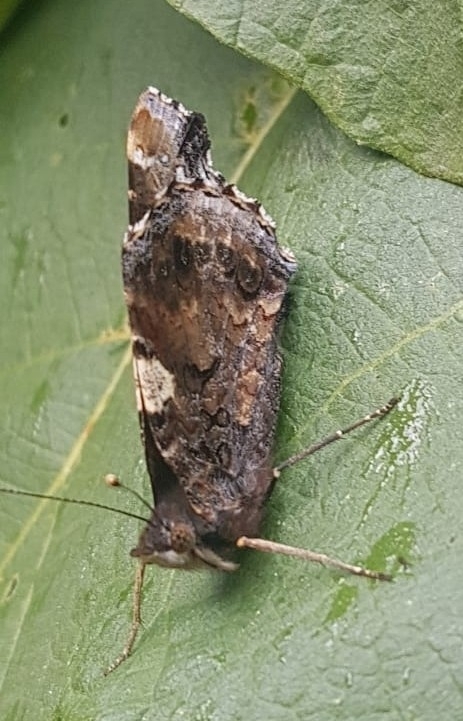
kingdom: Animalia
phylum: Arthropoda
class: Insecta
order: Lepidoptera
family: Nymphalidae
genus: Vanessa
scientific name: Vanessa atalanta
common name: Red admiral
